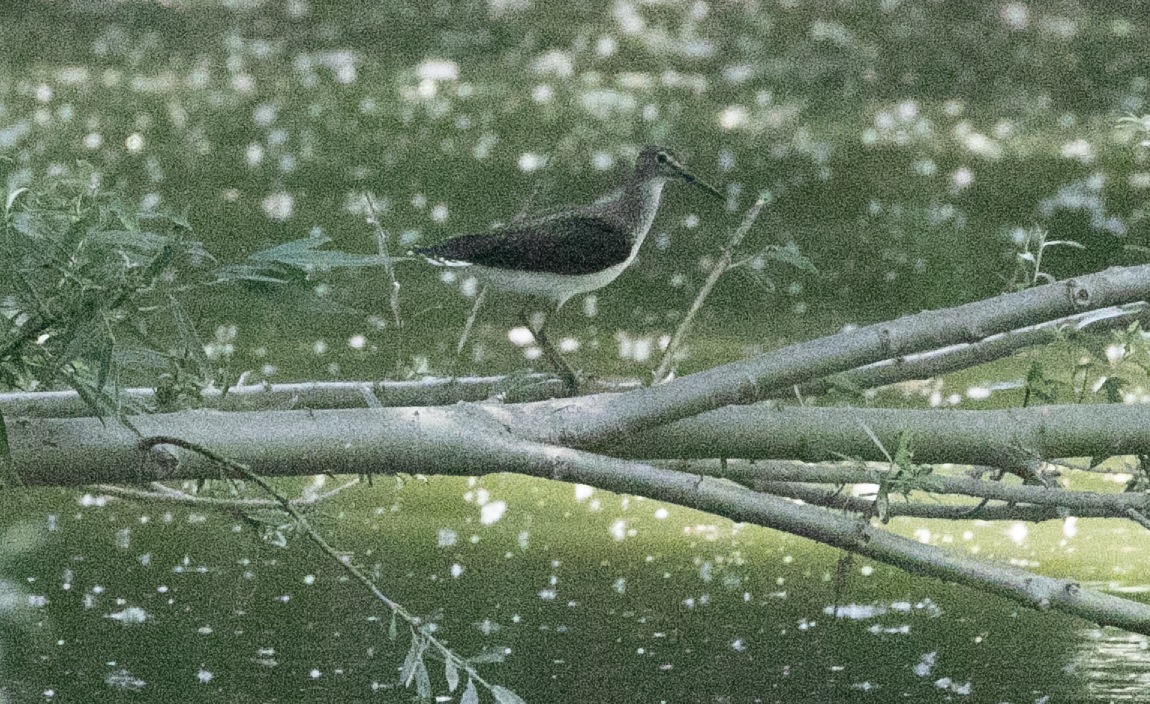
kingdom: Animalia
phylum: Chordata
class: Aves
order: Charadriiformes
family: Scolopacidae
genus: Tringa
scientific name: Tringa ochropus
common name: Green sandpiper
